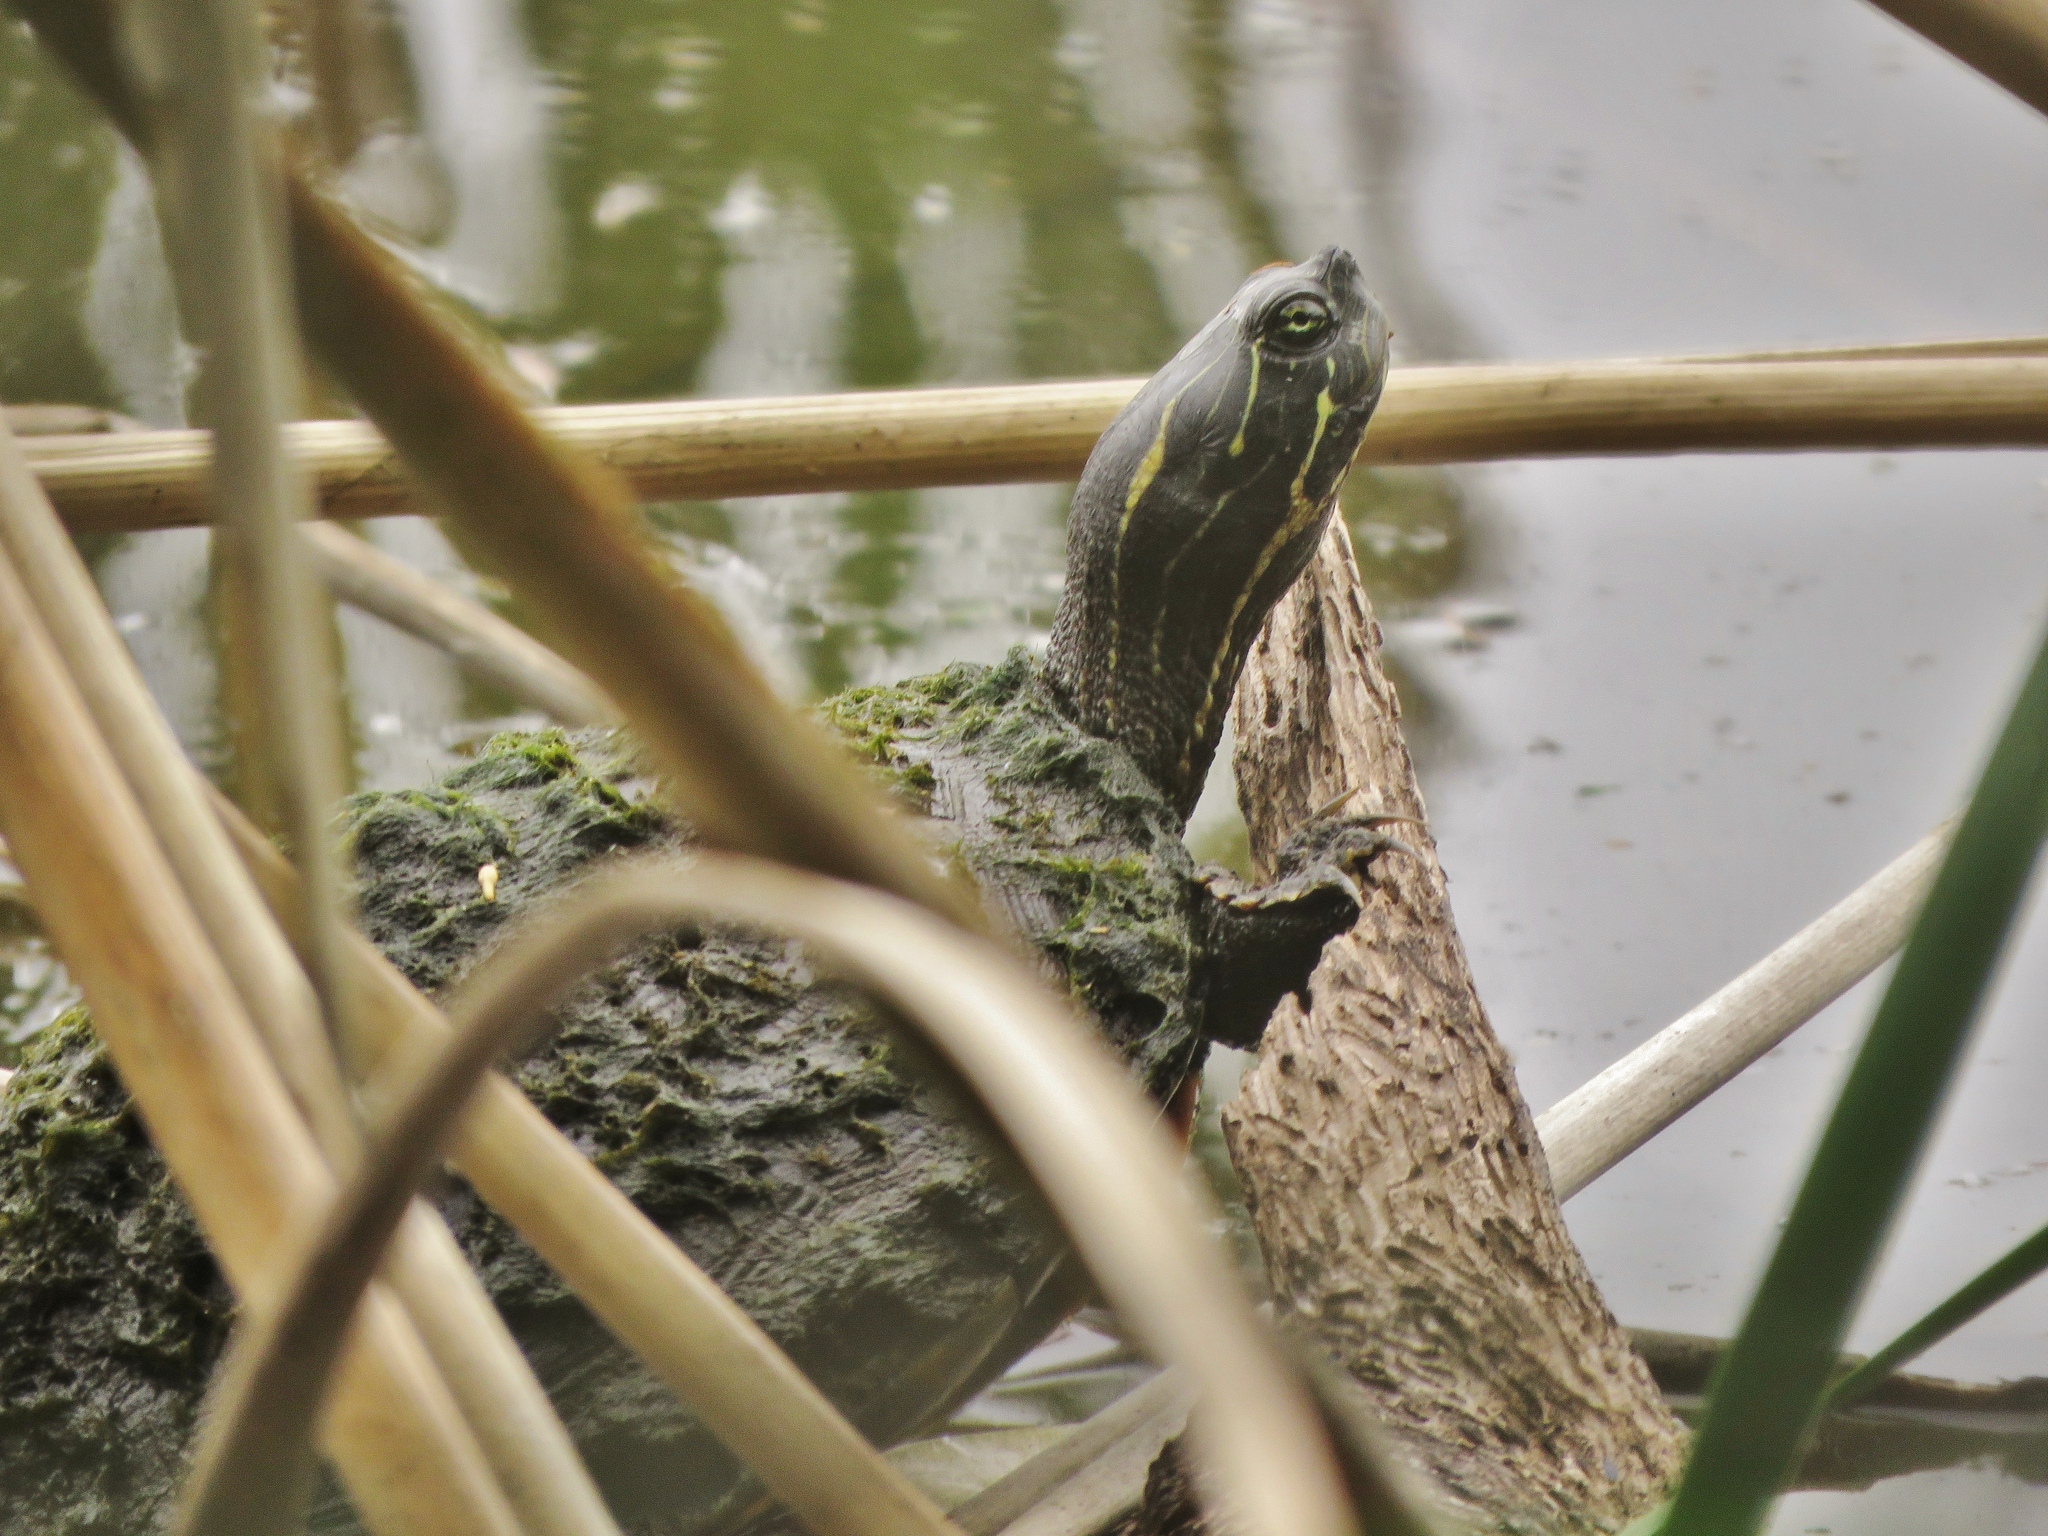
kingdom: Animalia
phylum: Chordata
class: Testudines
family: Emydidae
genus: Pseudemys
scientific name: Pseudemys concinna
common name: Eastern river cooter
